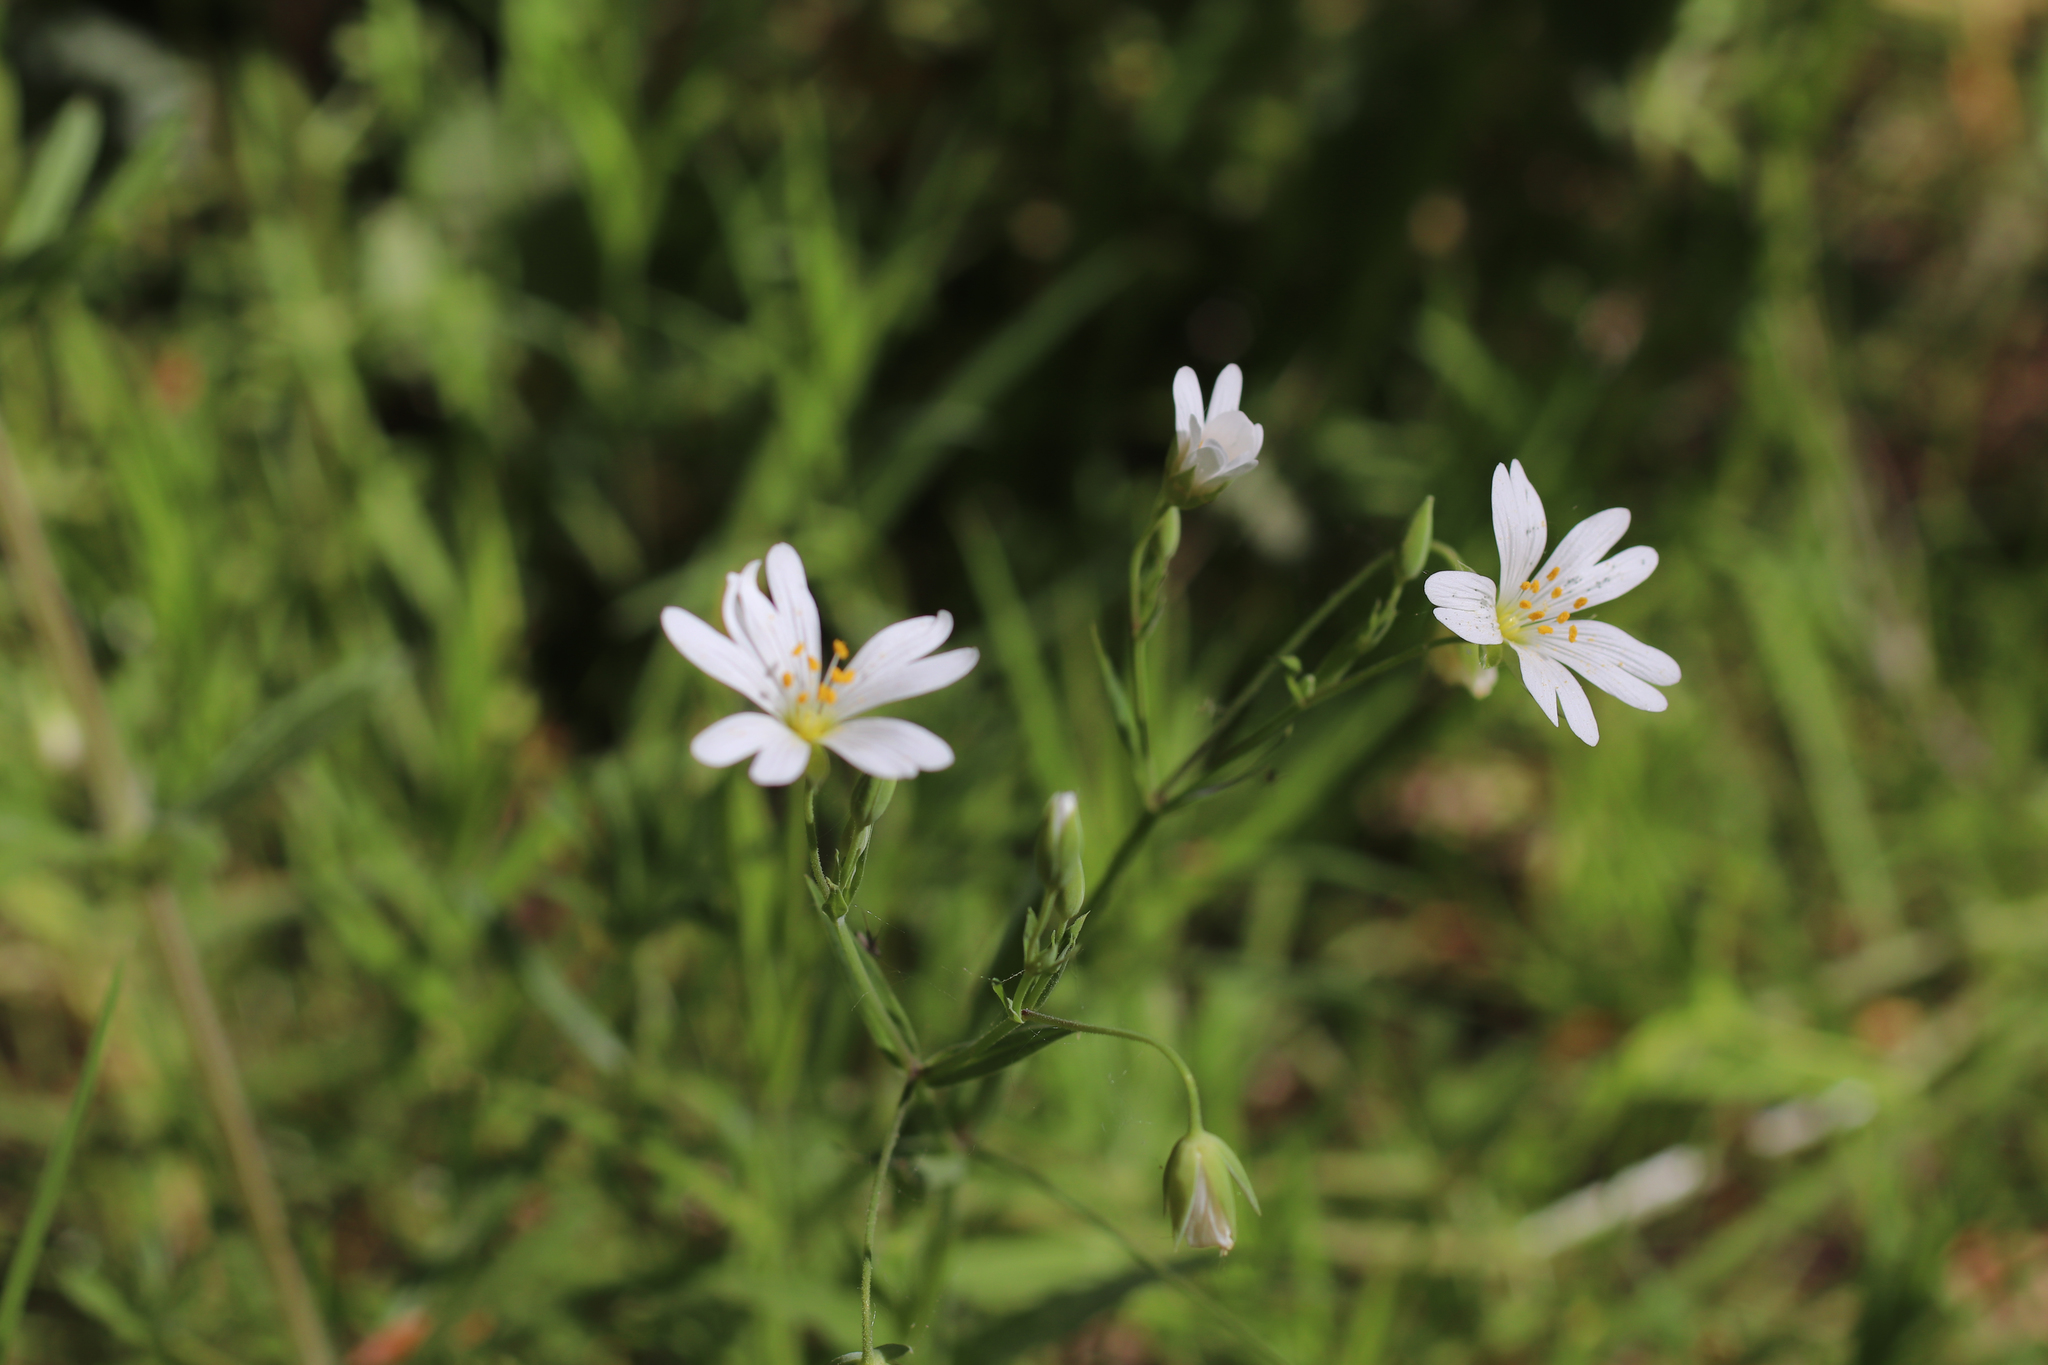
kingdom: Plantae
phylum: Tracheophyta
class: Magnoliopsida
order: Caryophyllales
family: Caryophyllaceae
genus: Rabelera
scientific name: Rabelera holostea
